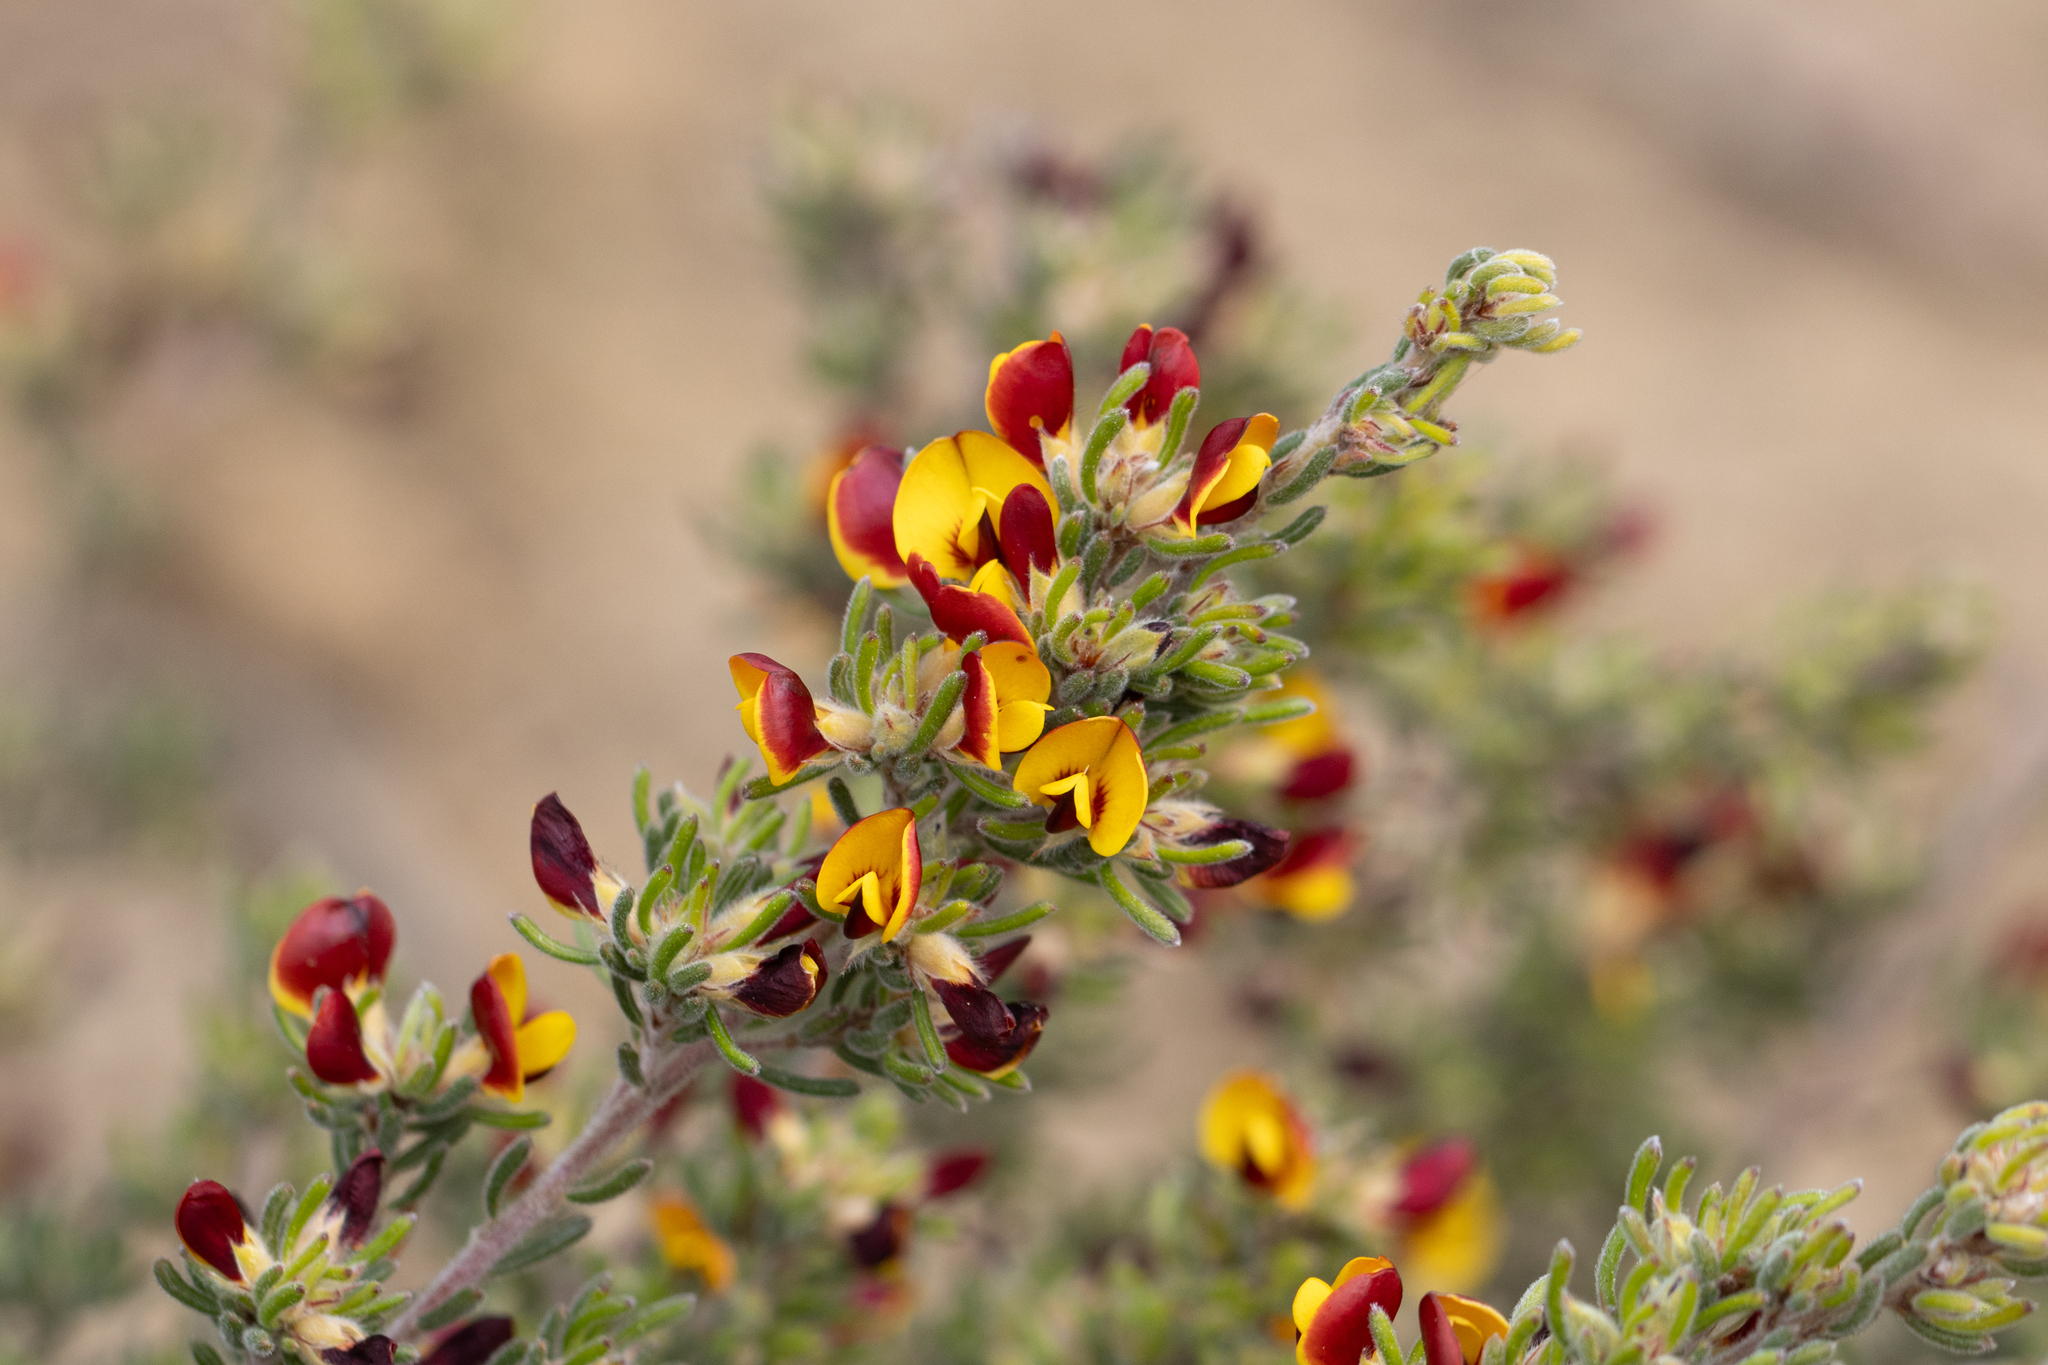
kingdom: Plantae
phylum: Tracheophyta
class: Magnoliopsida
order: Fabales
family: Fabaceae
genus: Pultenaea
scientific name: Pultenaea canaliculata
